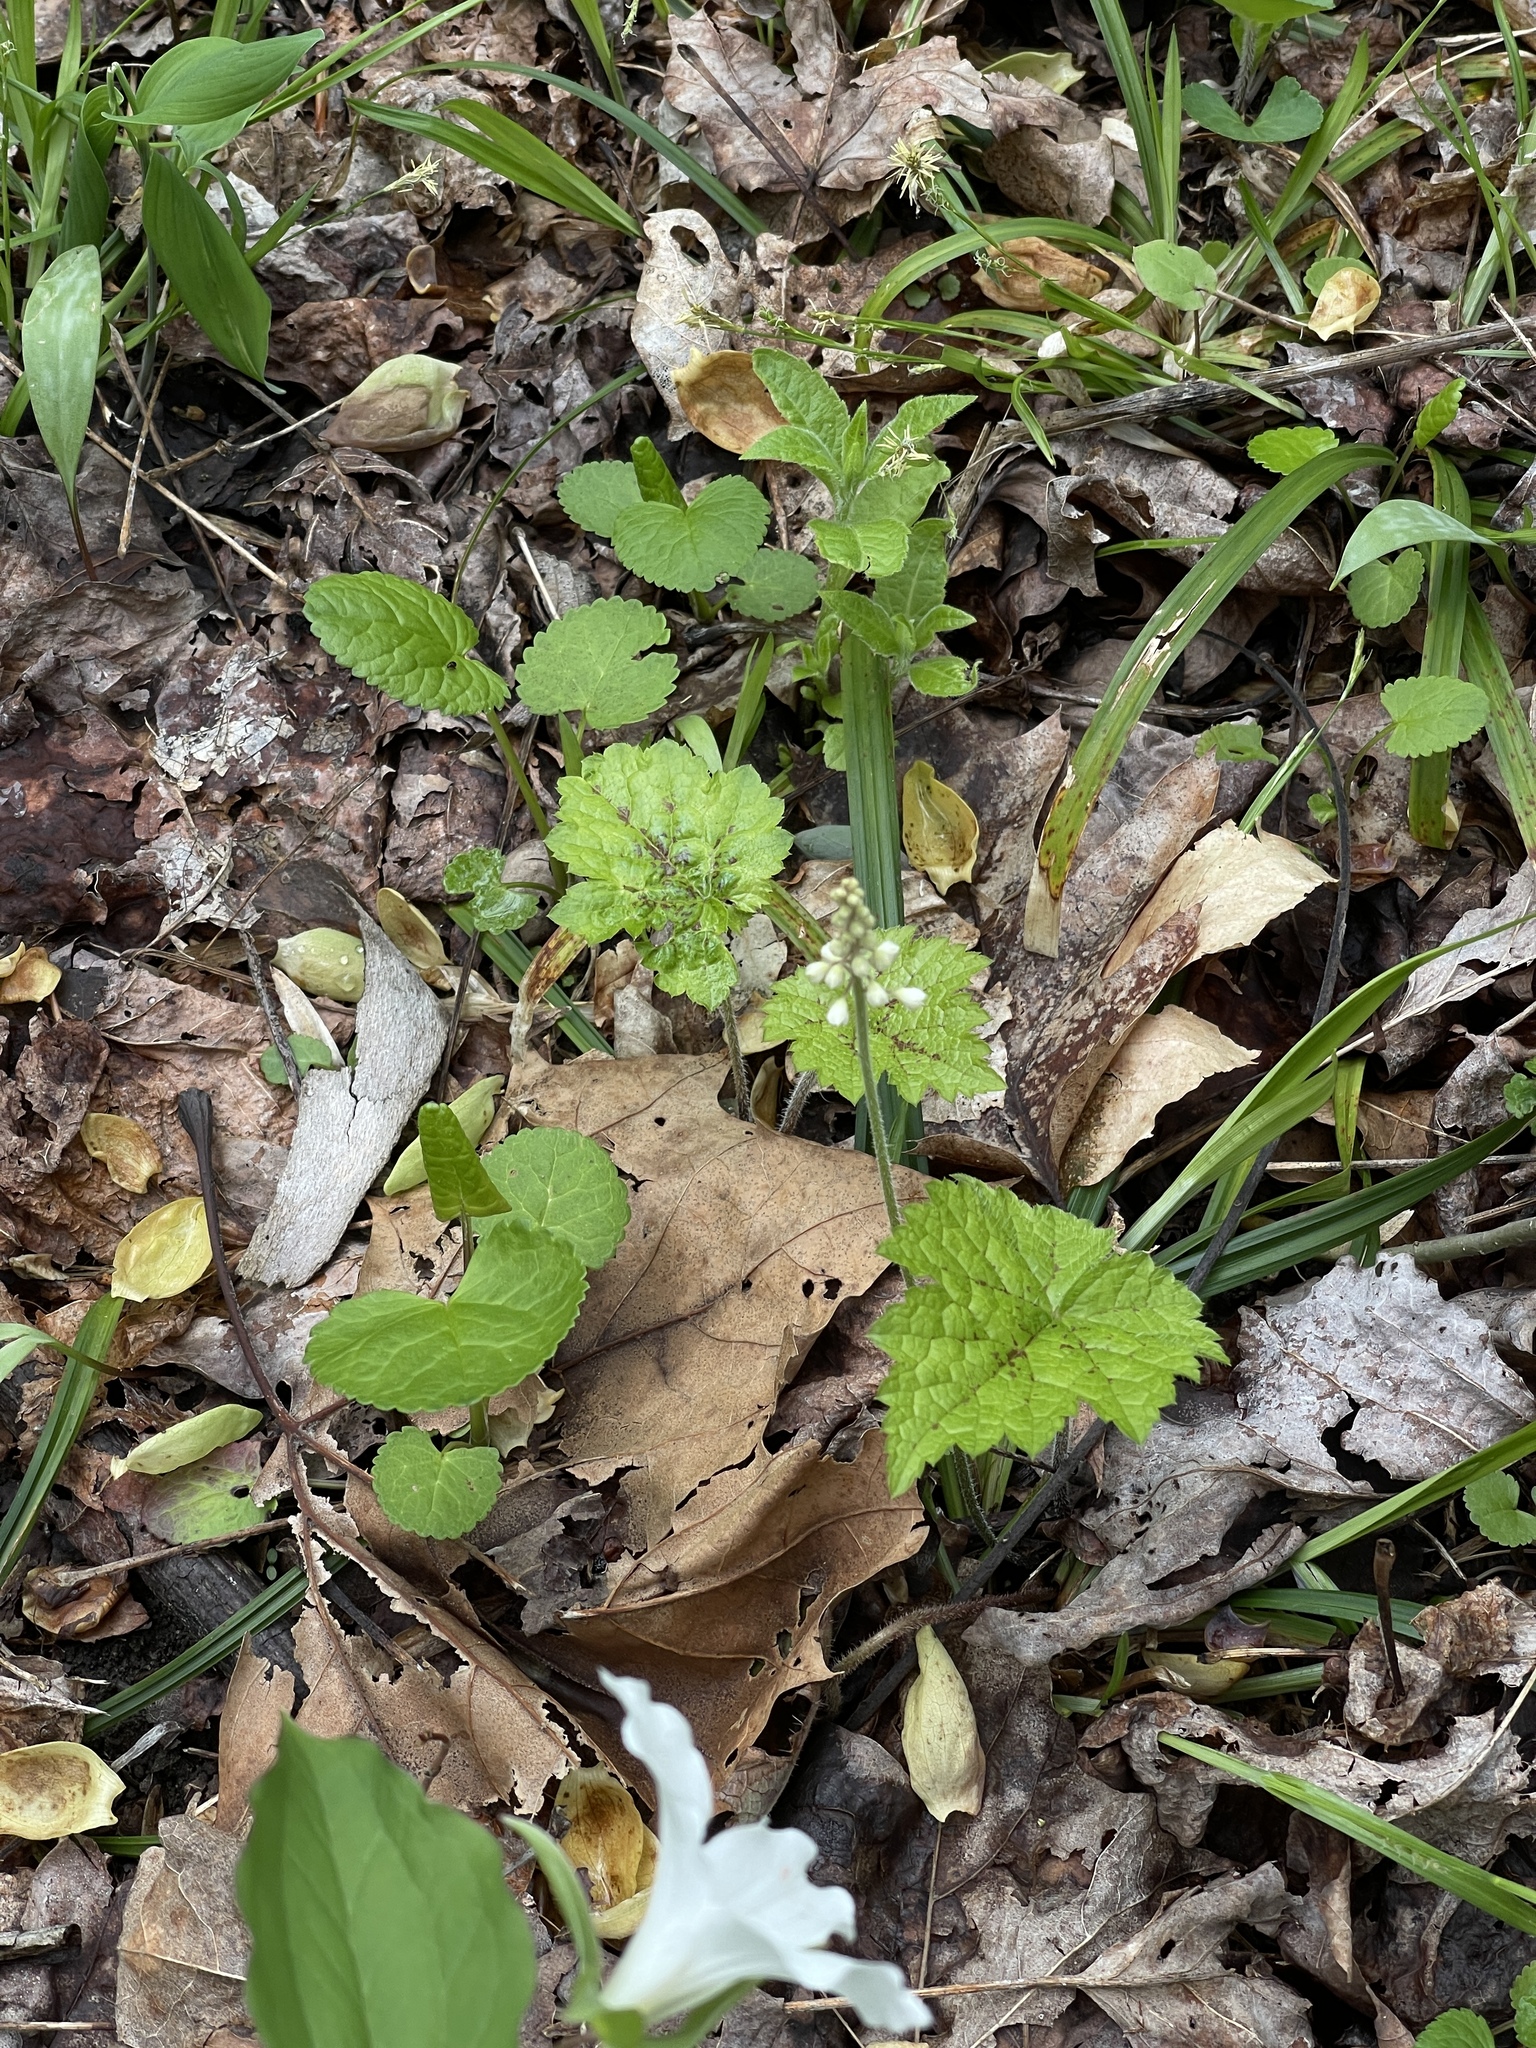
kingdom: Plantae
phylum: Tracheophyta
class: Magnoliopsida
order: Saxifragales
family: Saxifragaceae
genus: Tiarella
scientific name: Tiarella stolonifera
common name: Stoloniferous foamflower
